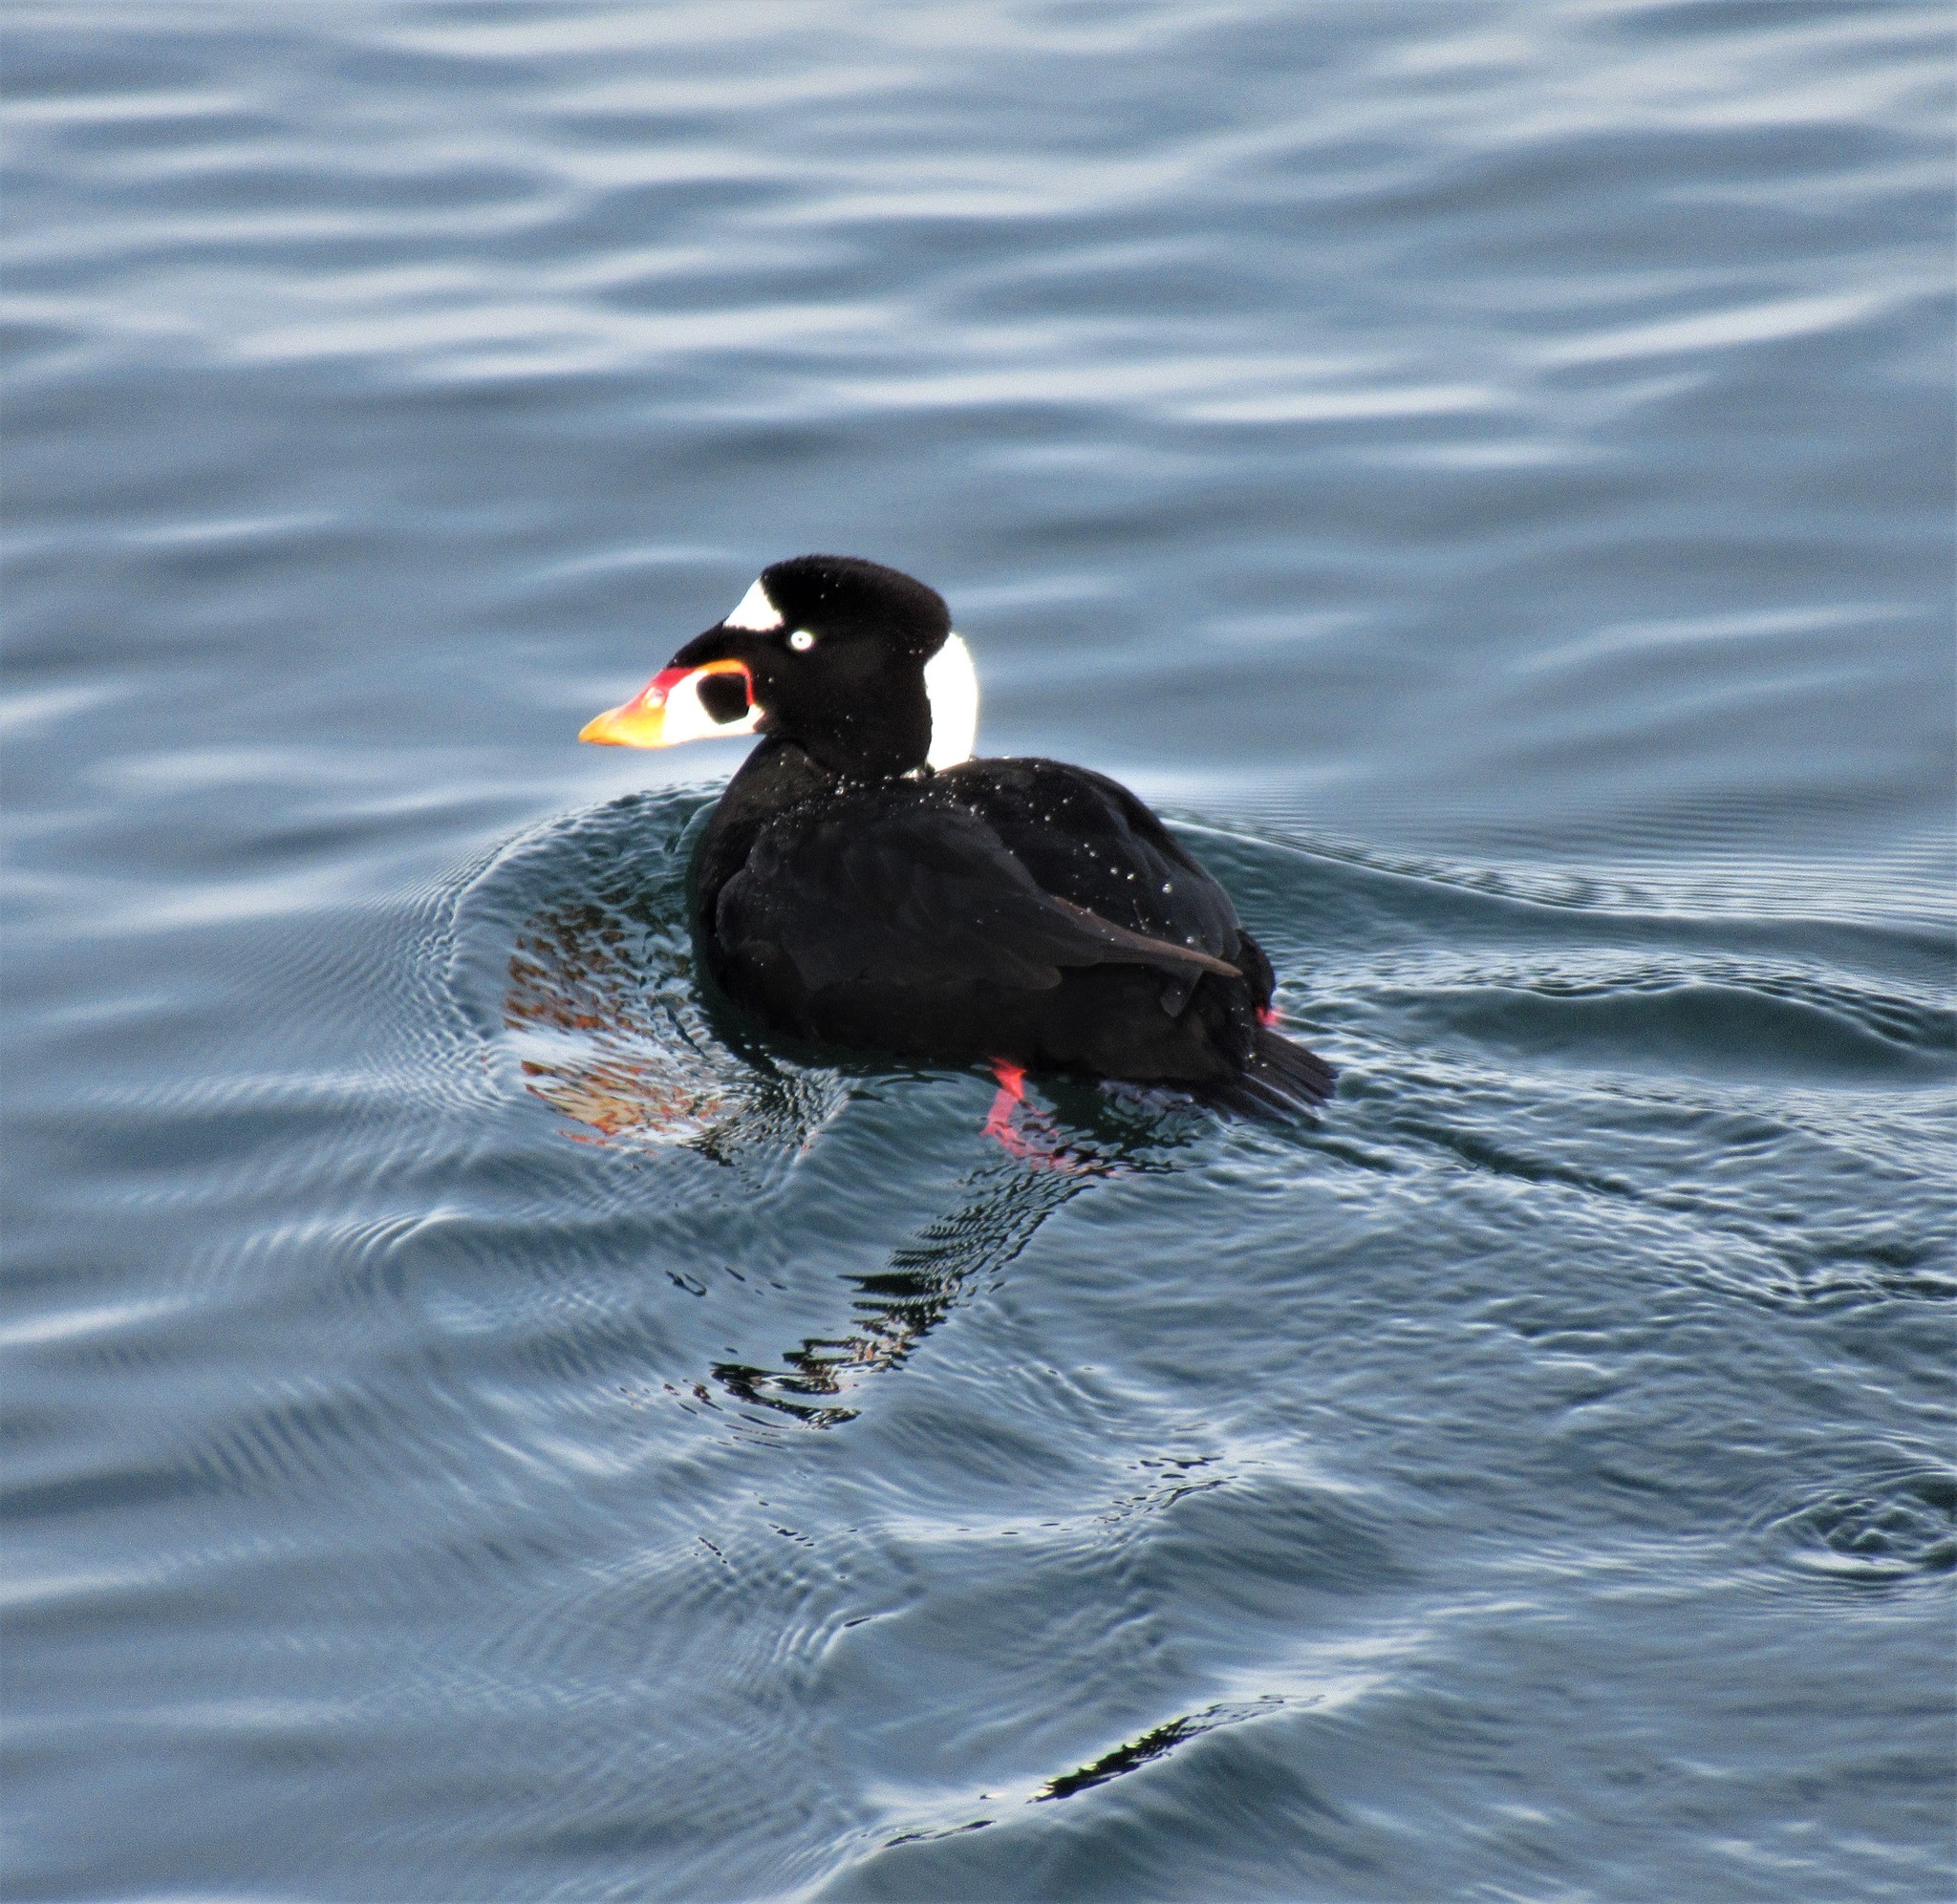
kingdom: Animalia
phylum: Chordata
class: Aves
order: Anseriformes
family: Anatidae
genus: Melanitta
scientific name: Melanitta perspicillata
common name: Surf scoter
